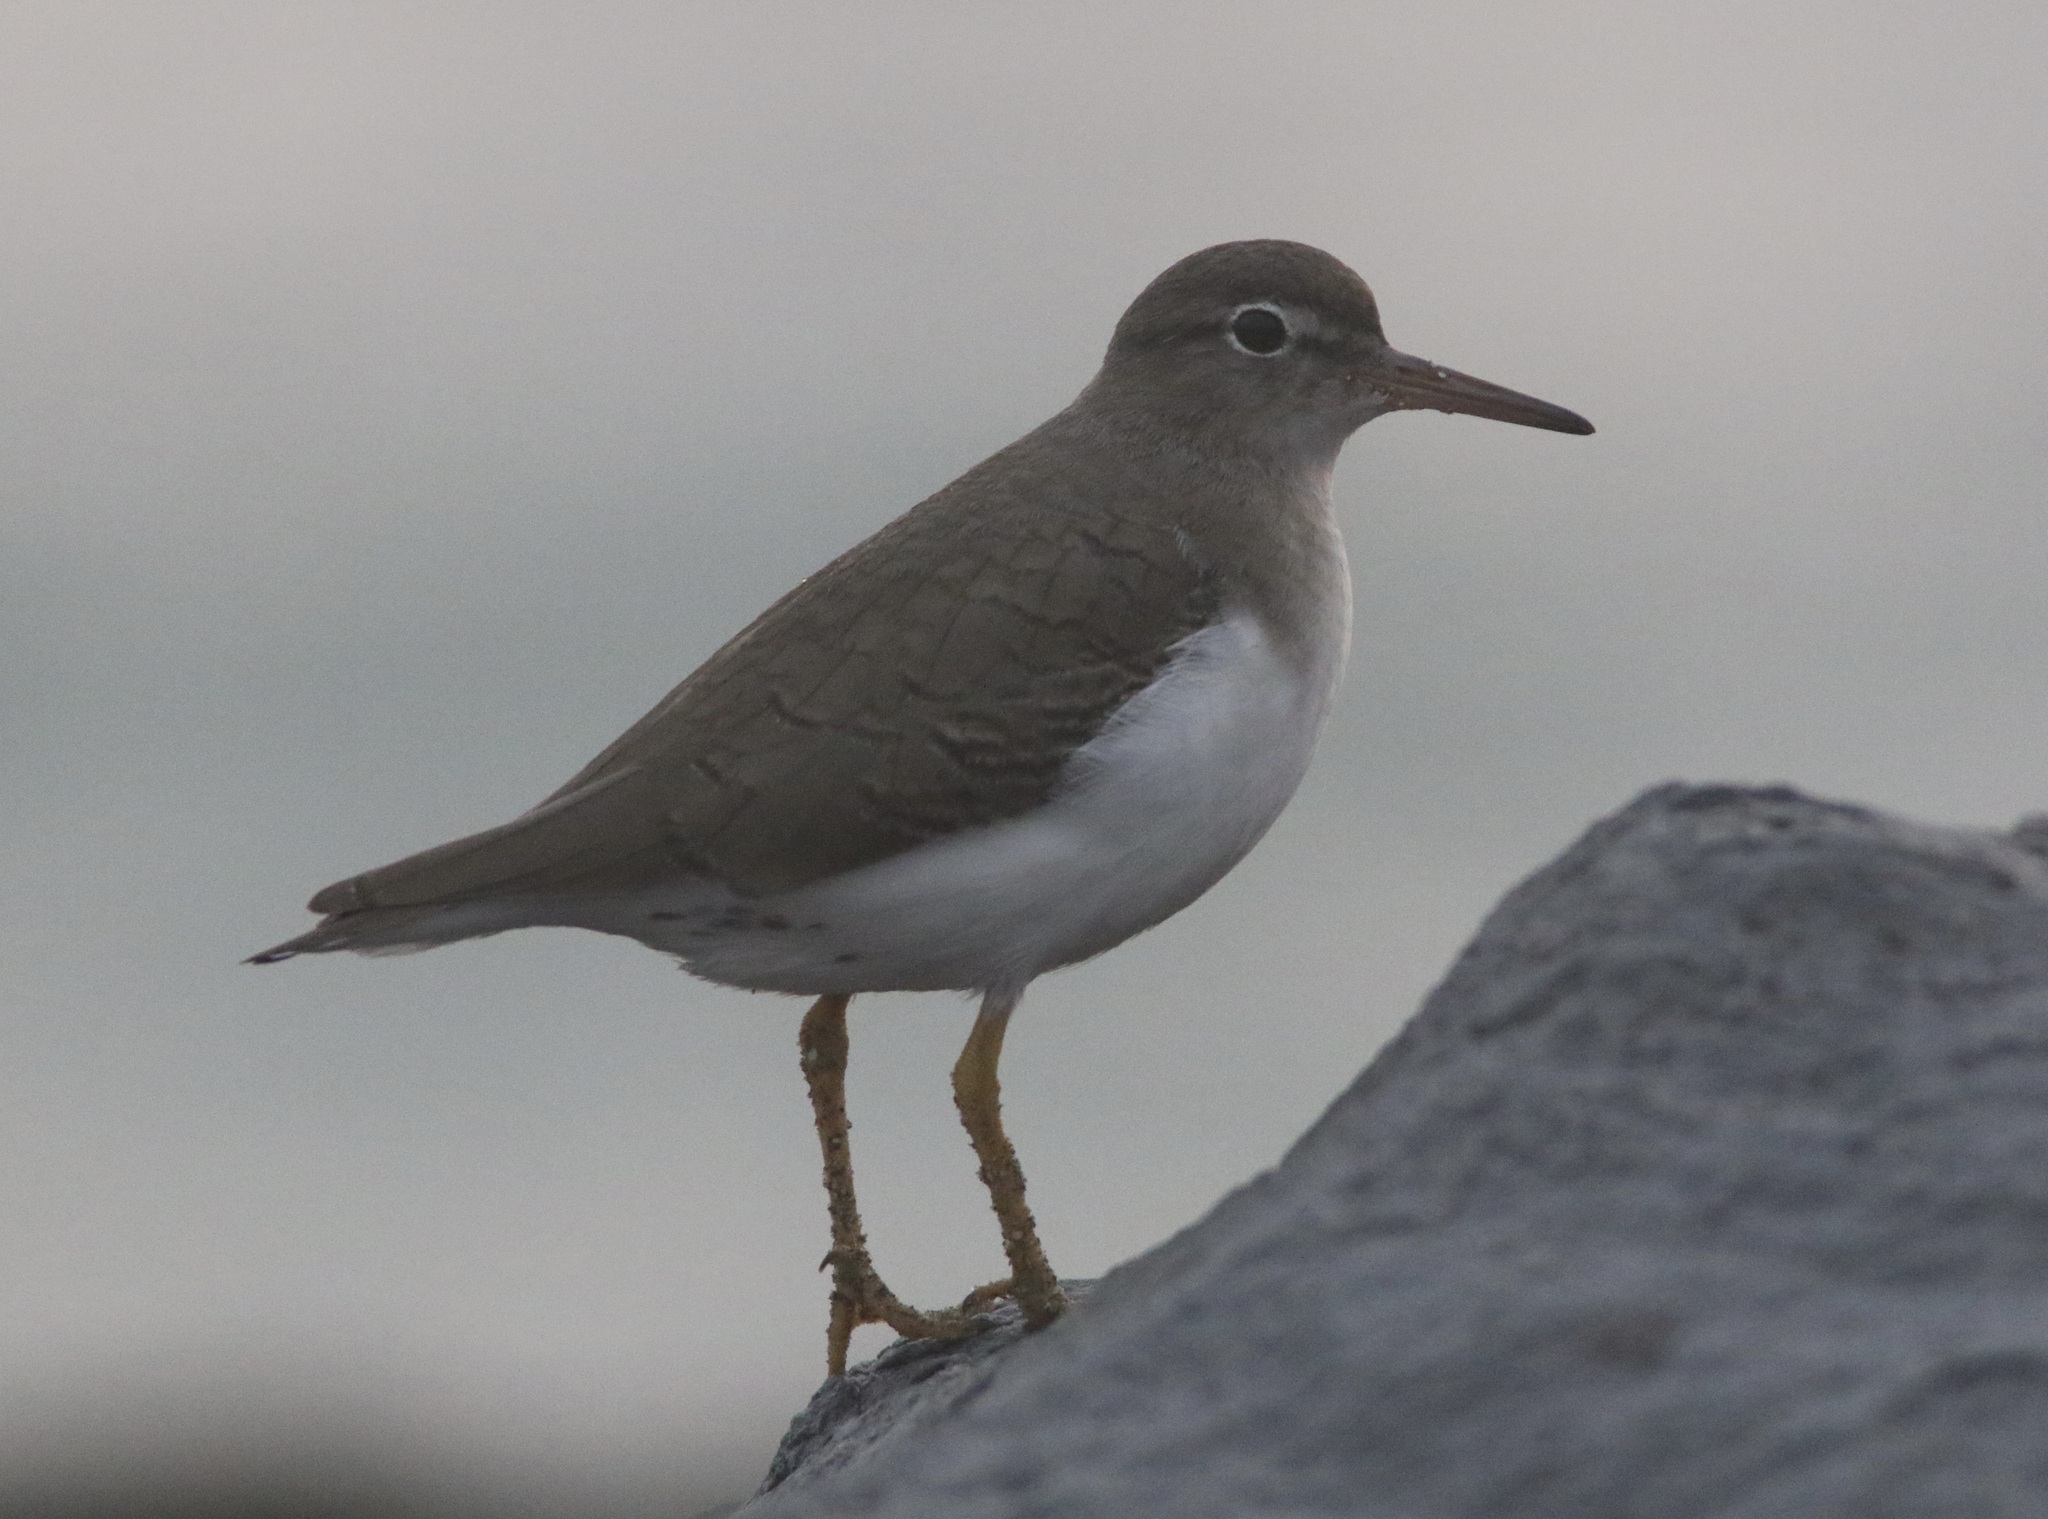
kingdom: Animalia
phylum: Chordata
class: Aves
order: Charadriiformes
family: Scolopacidae
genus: Actitis
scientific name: Actitis macularius
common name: Spotted sandpiper
